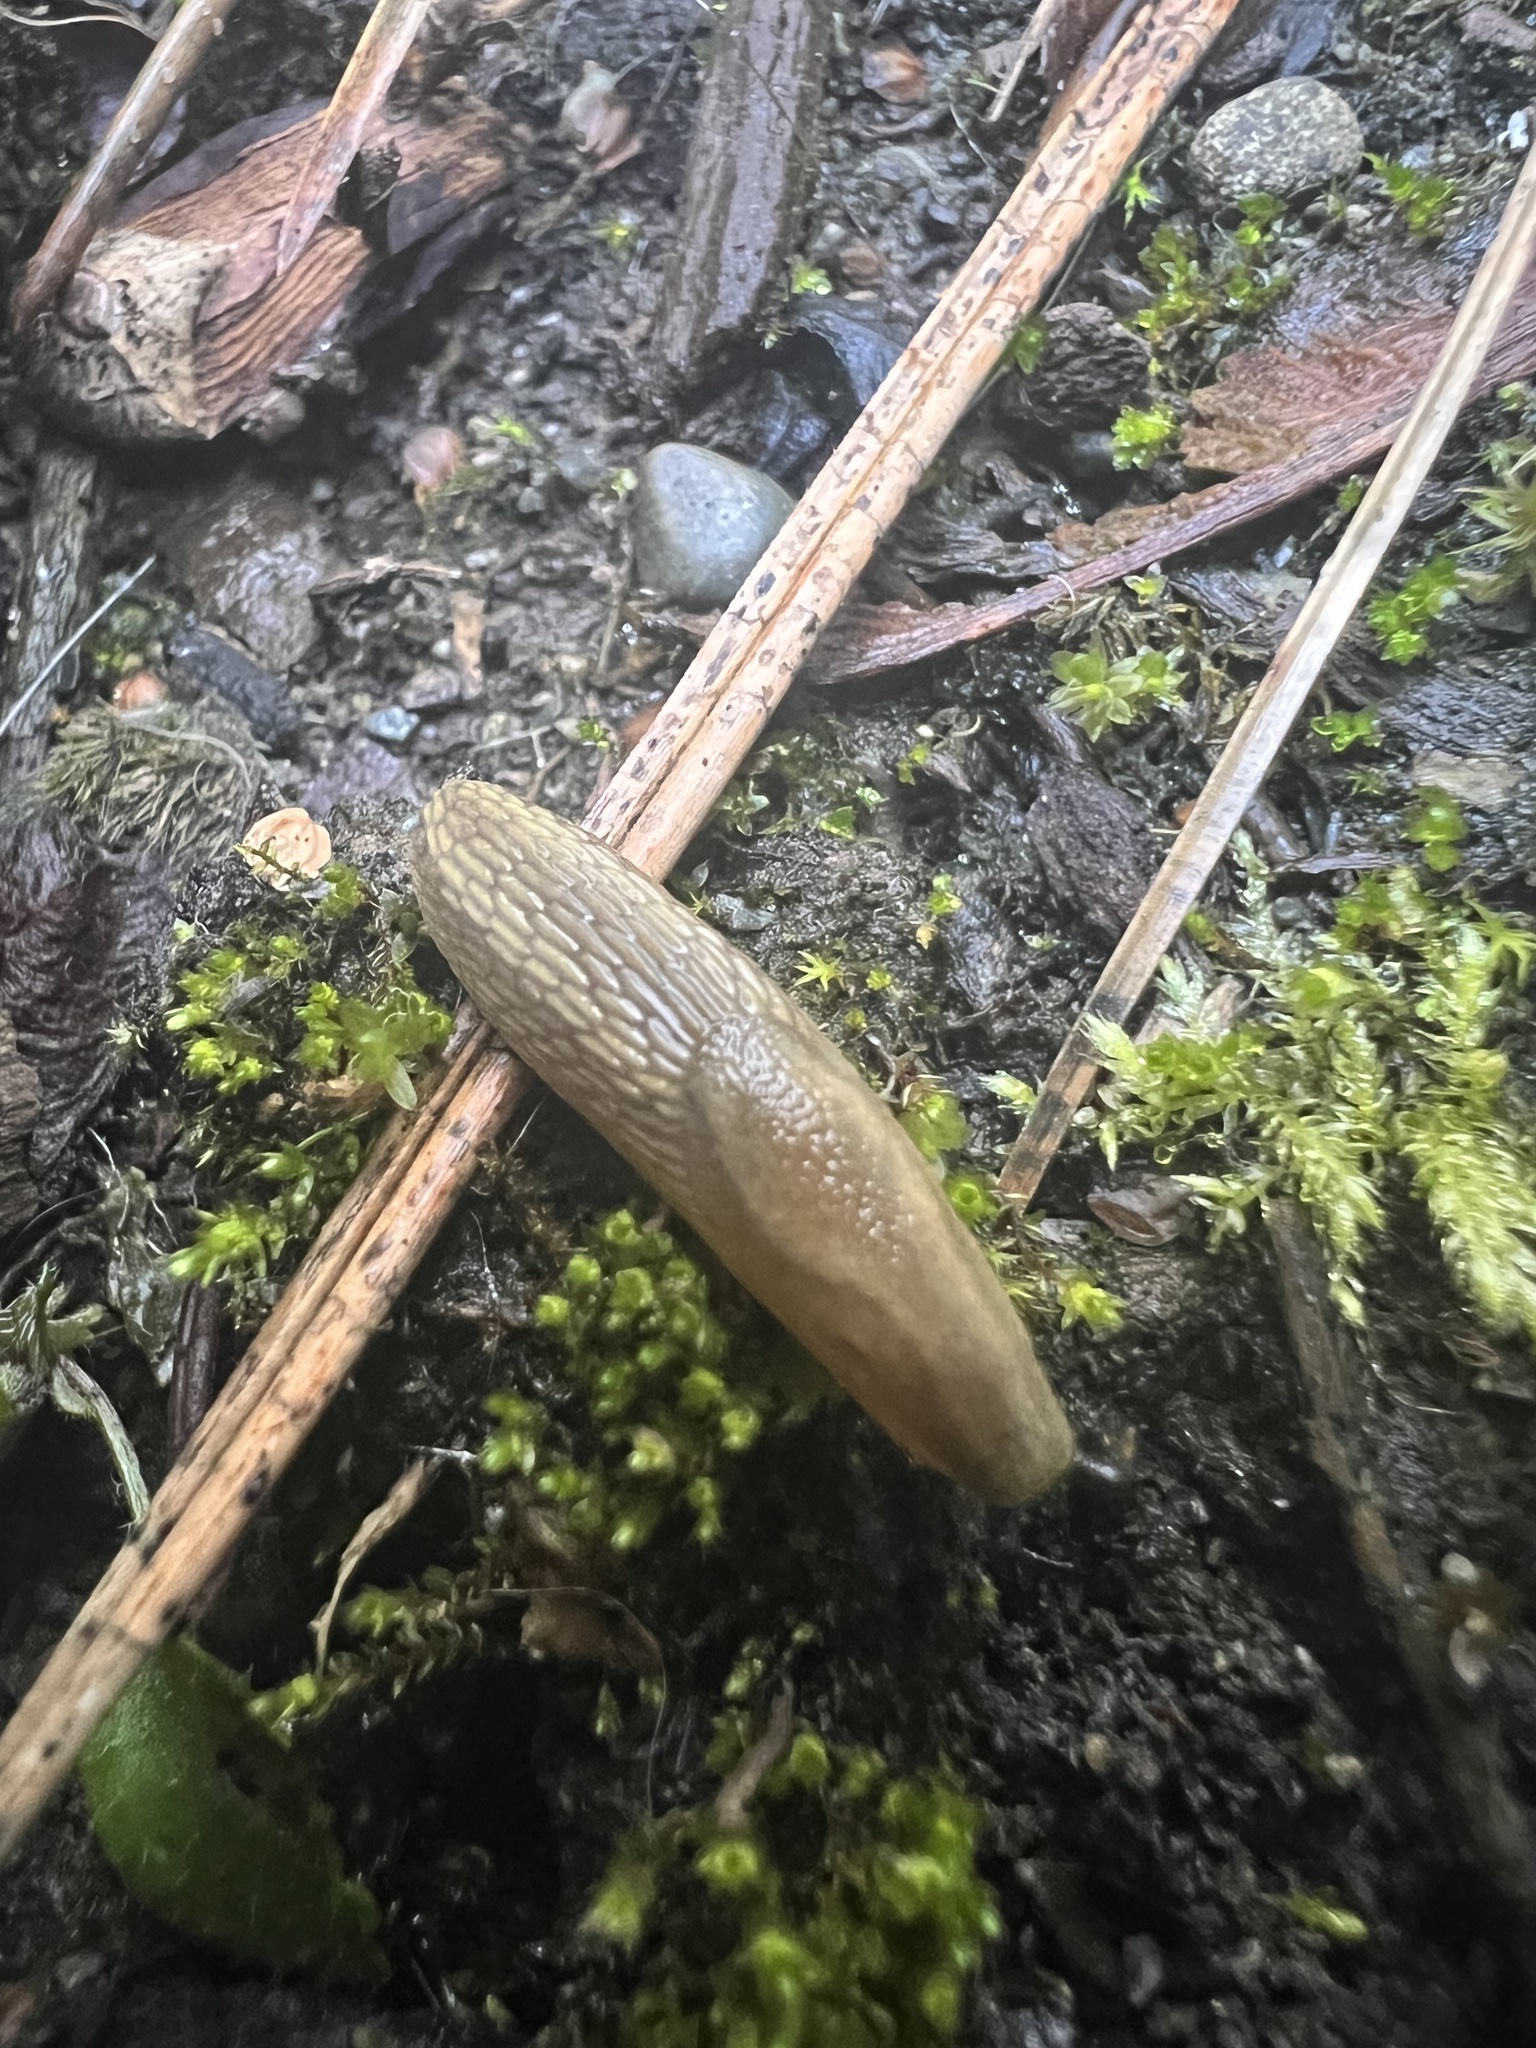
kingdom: Animalia
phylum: Mollusca
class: Gastropoda
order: Stylommatophora
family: Arionidae
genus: Arion
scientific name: Arion
